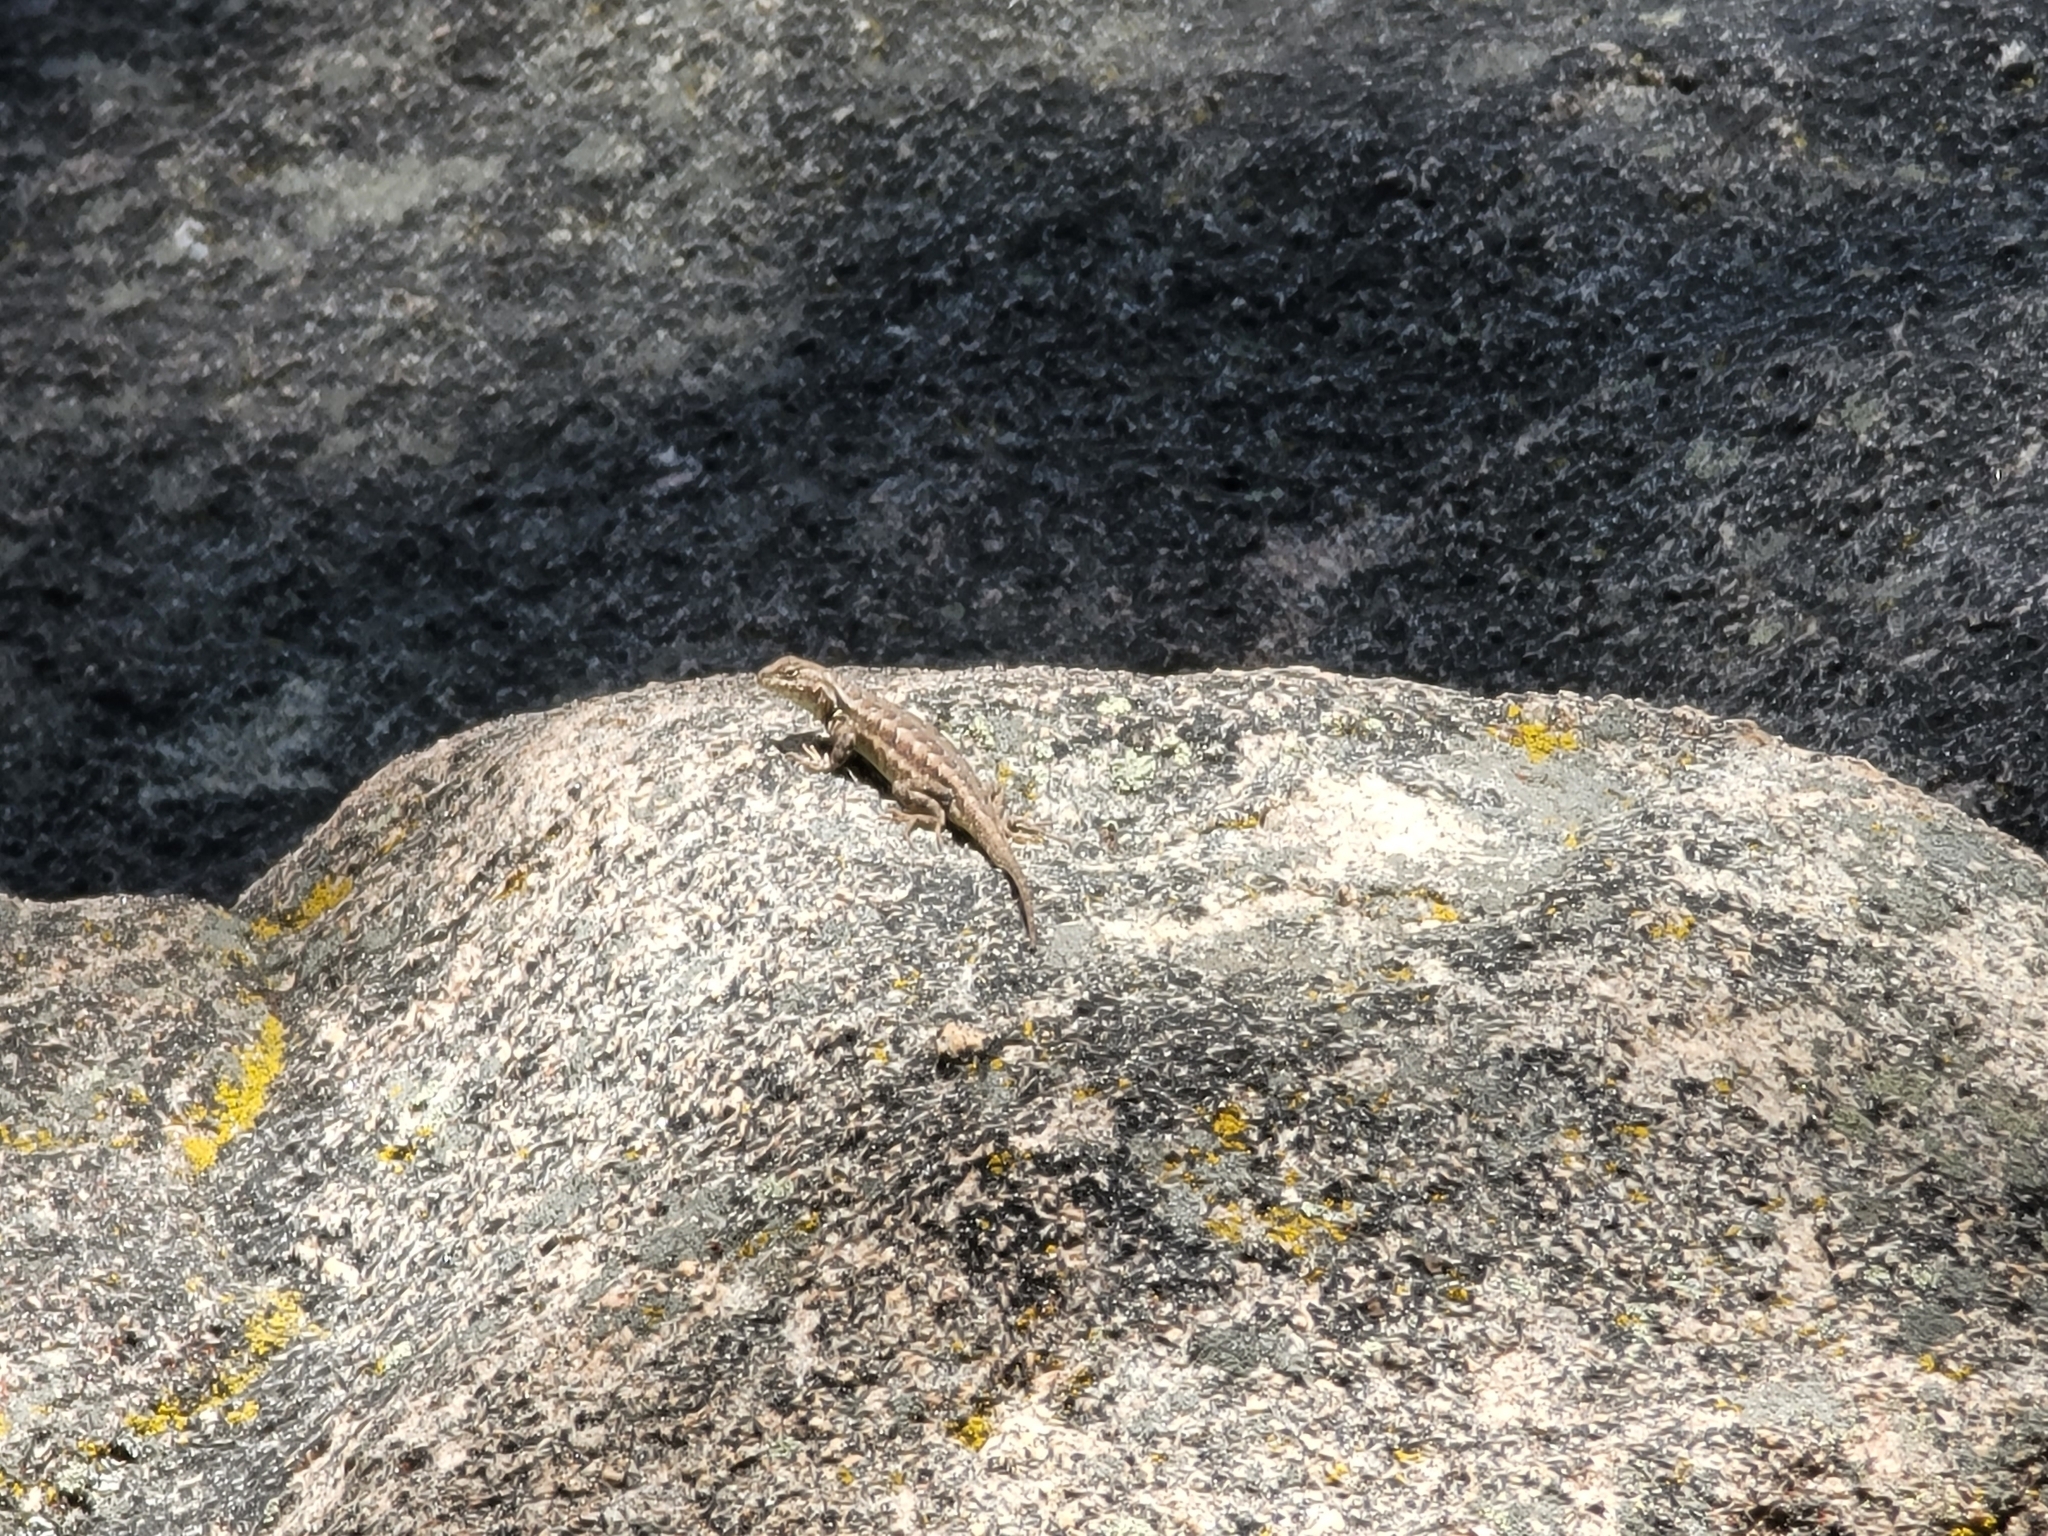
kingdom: Animalia
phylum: Chordata
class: Squamata
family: Phrynosomatidae
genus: Sceloporus
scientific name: Sceloporus graciosus
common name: Sagebrush lizard
